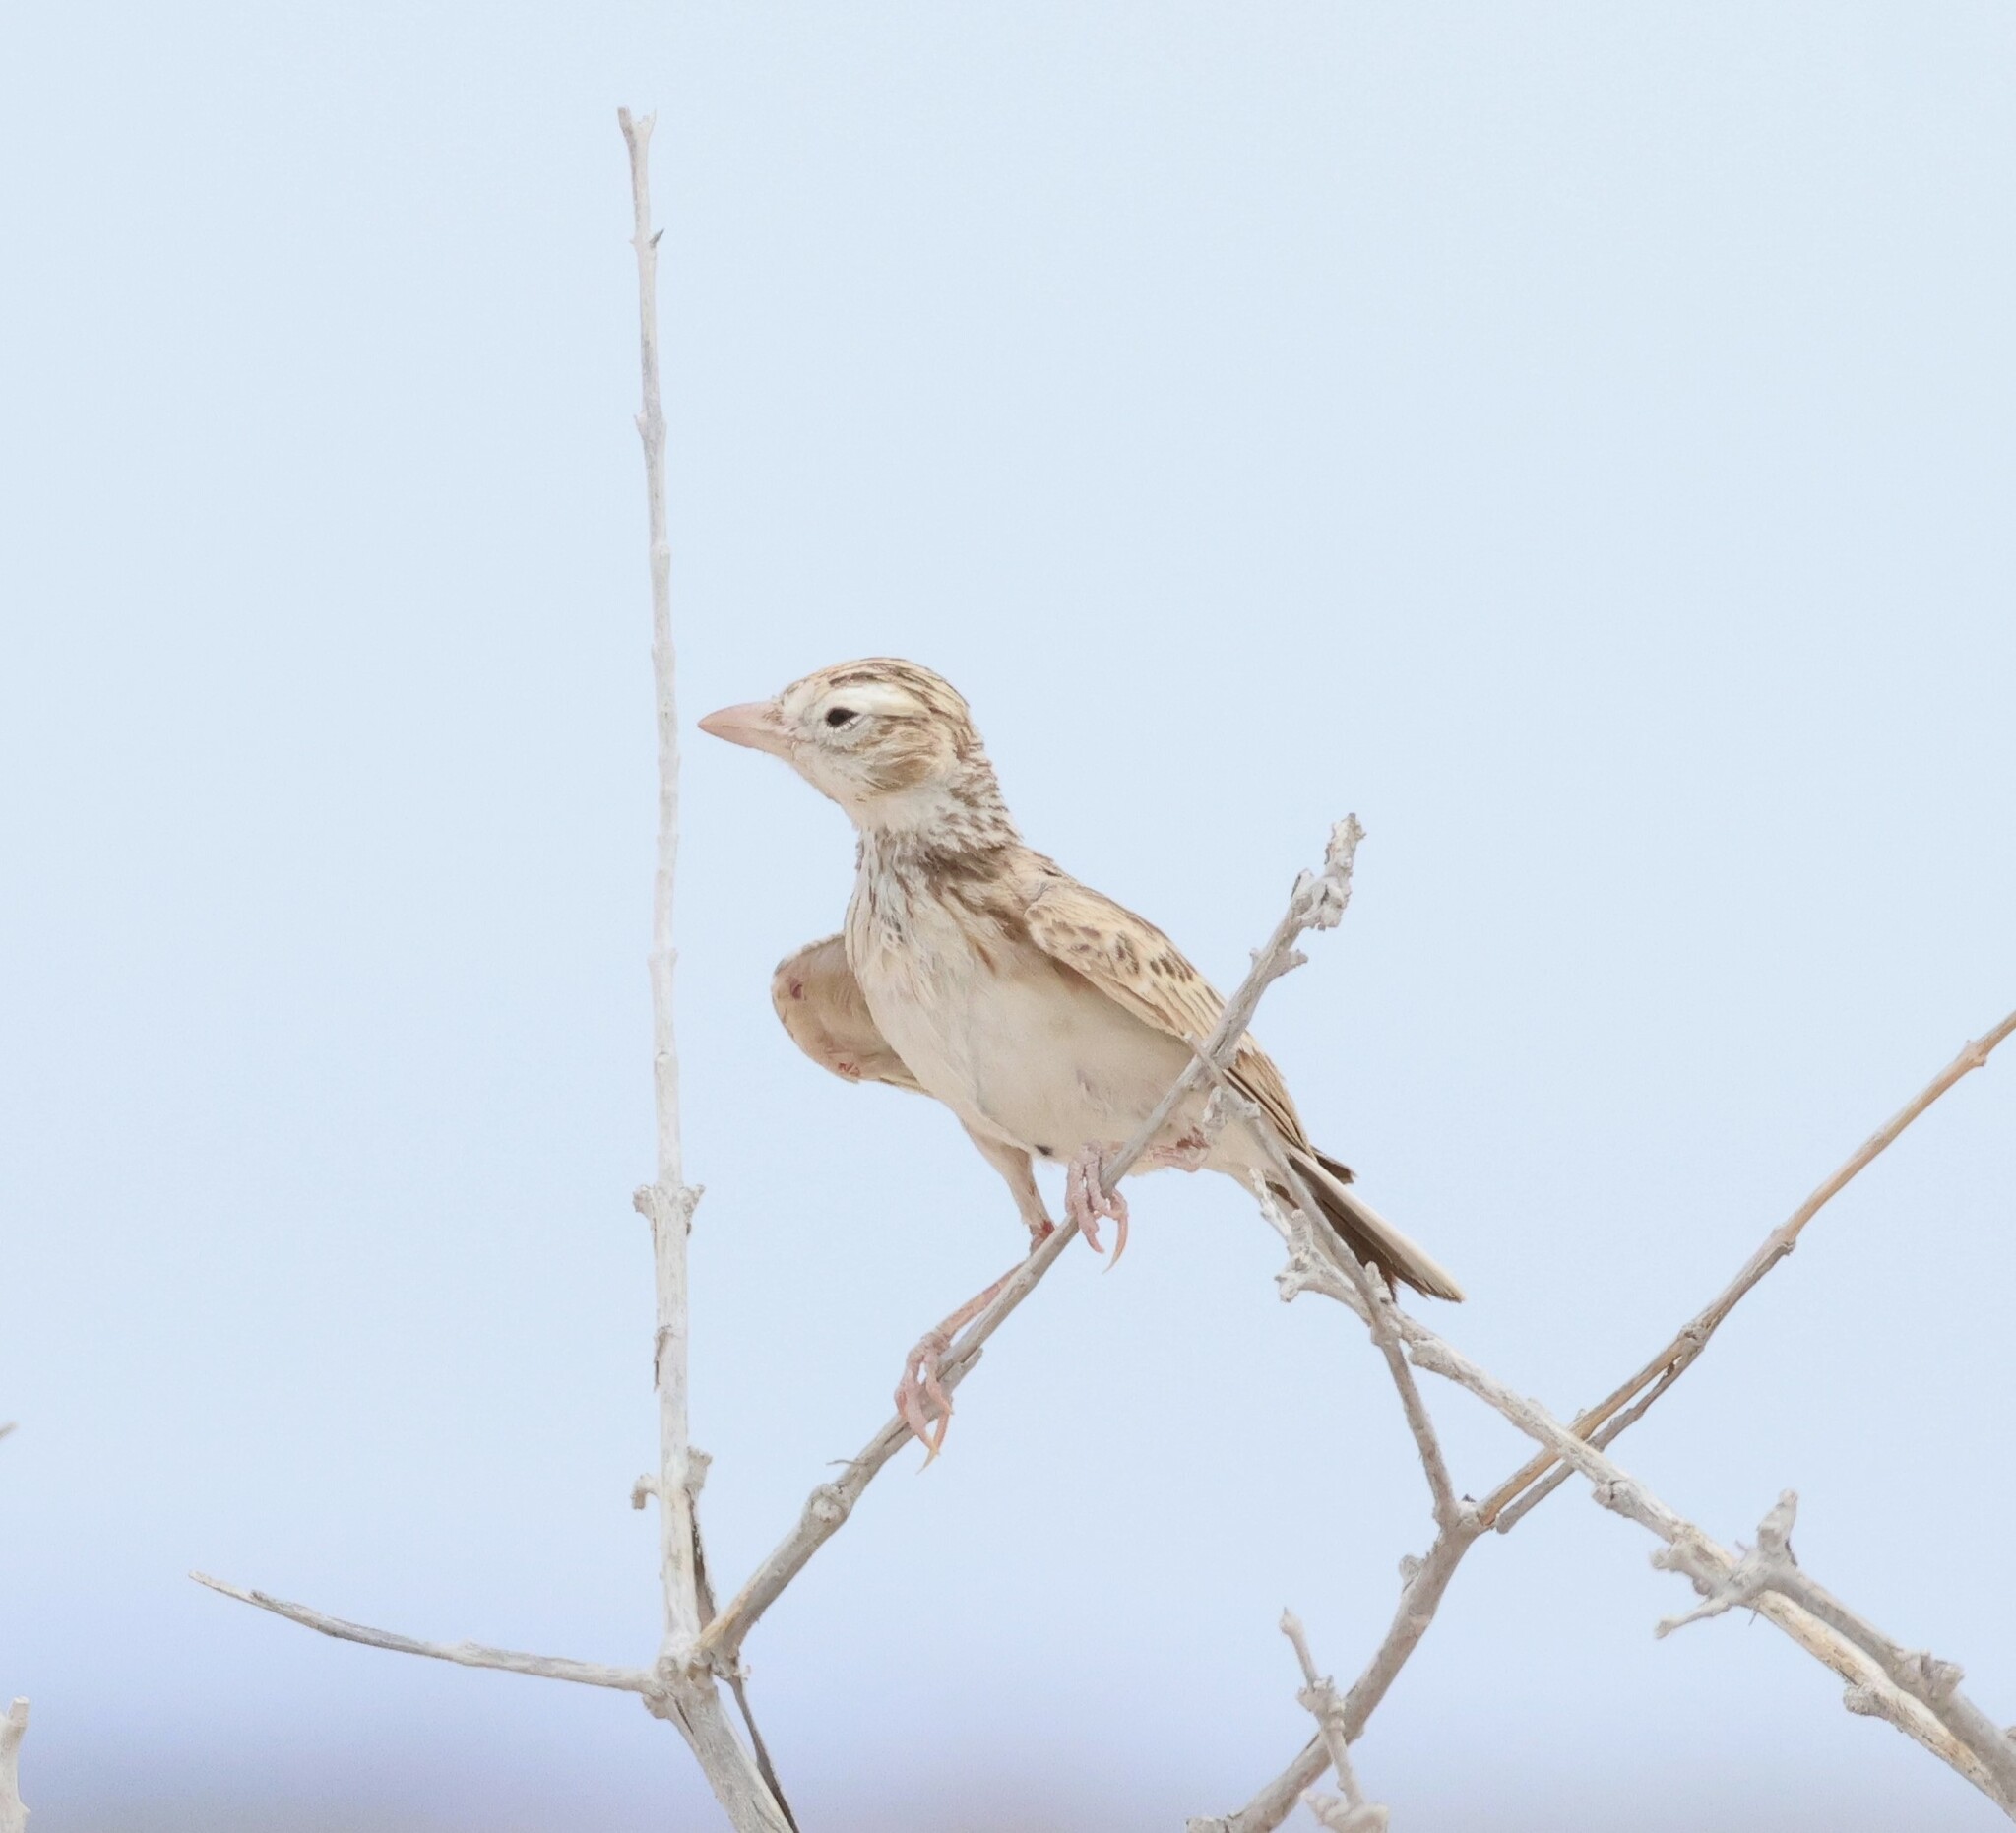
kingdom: Animalia
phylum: Chordata
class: Aves
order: Passeriformes
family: Alaudidae
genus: Spizocorys
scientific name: Spizocorys starki
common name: Stark's lark
